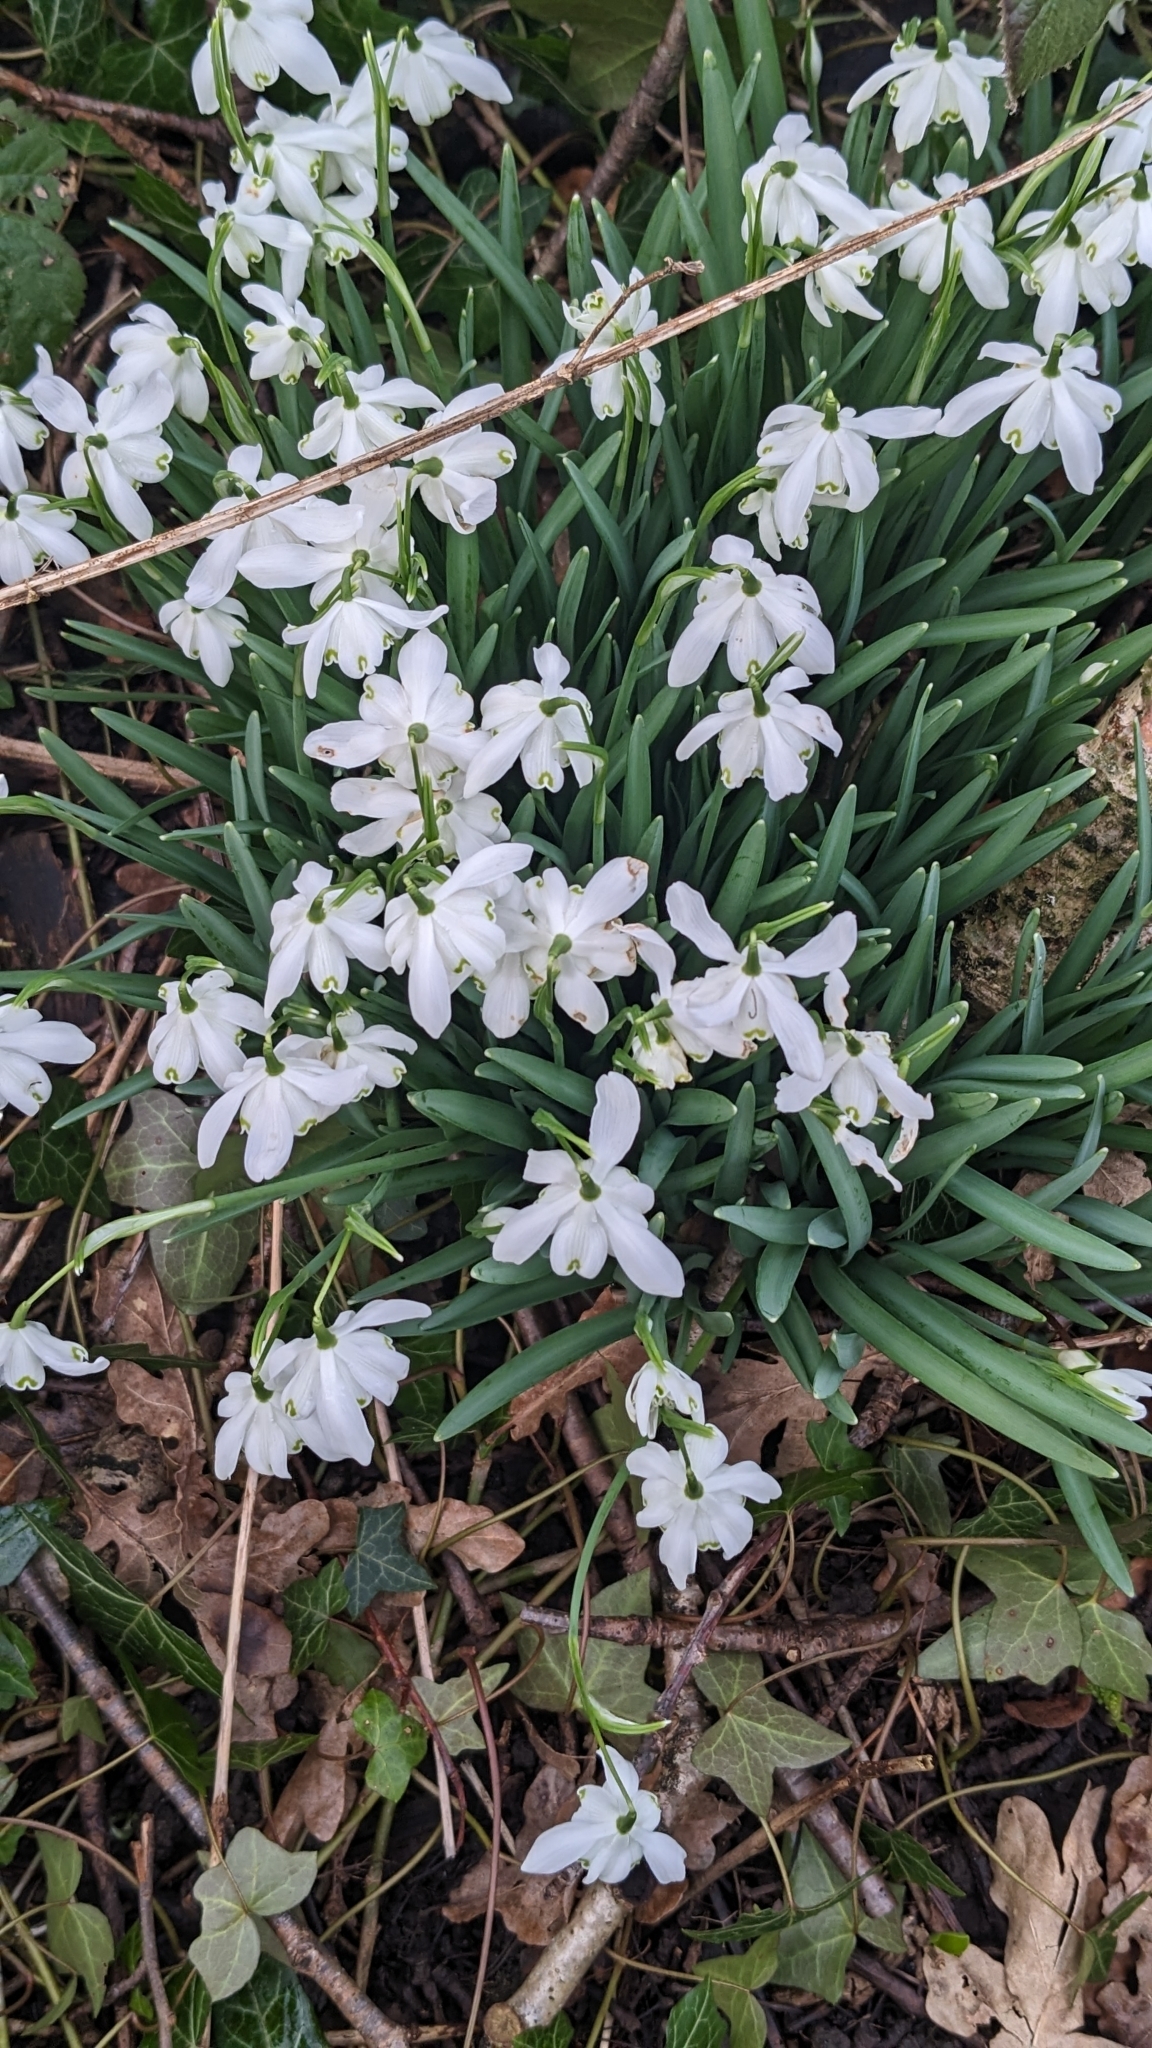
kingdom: Plantae
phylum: Tracheophyta
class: Liliopsida
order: Asparagales
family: Amaryllidaceae
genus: Galanthus
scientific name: Galanthus nivalis
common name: Snowdrop
